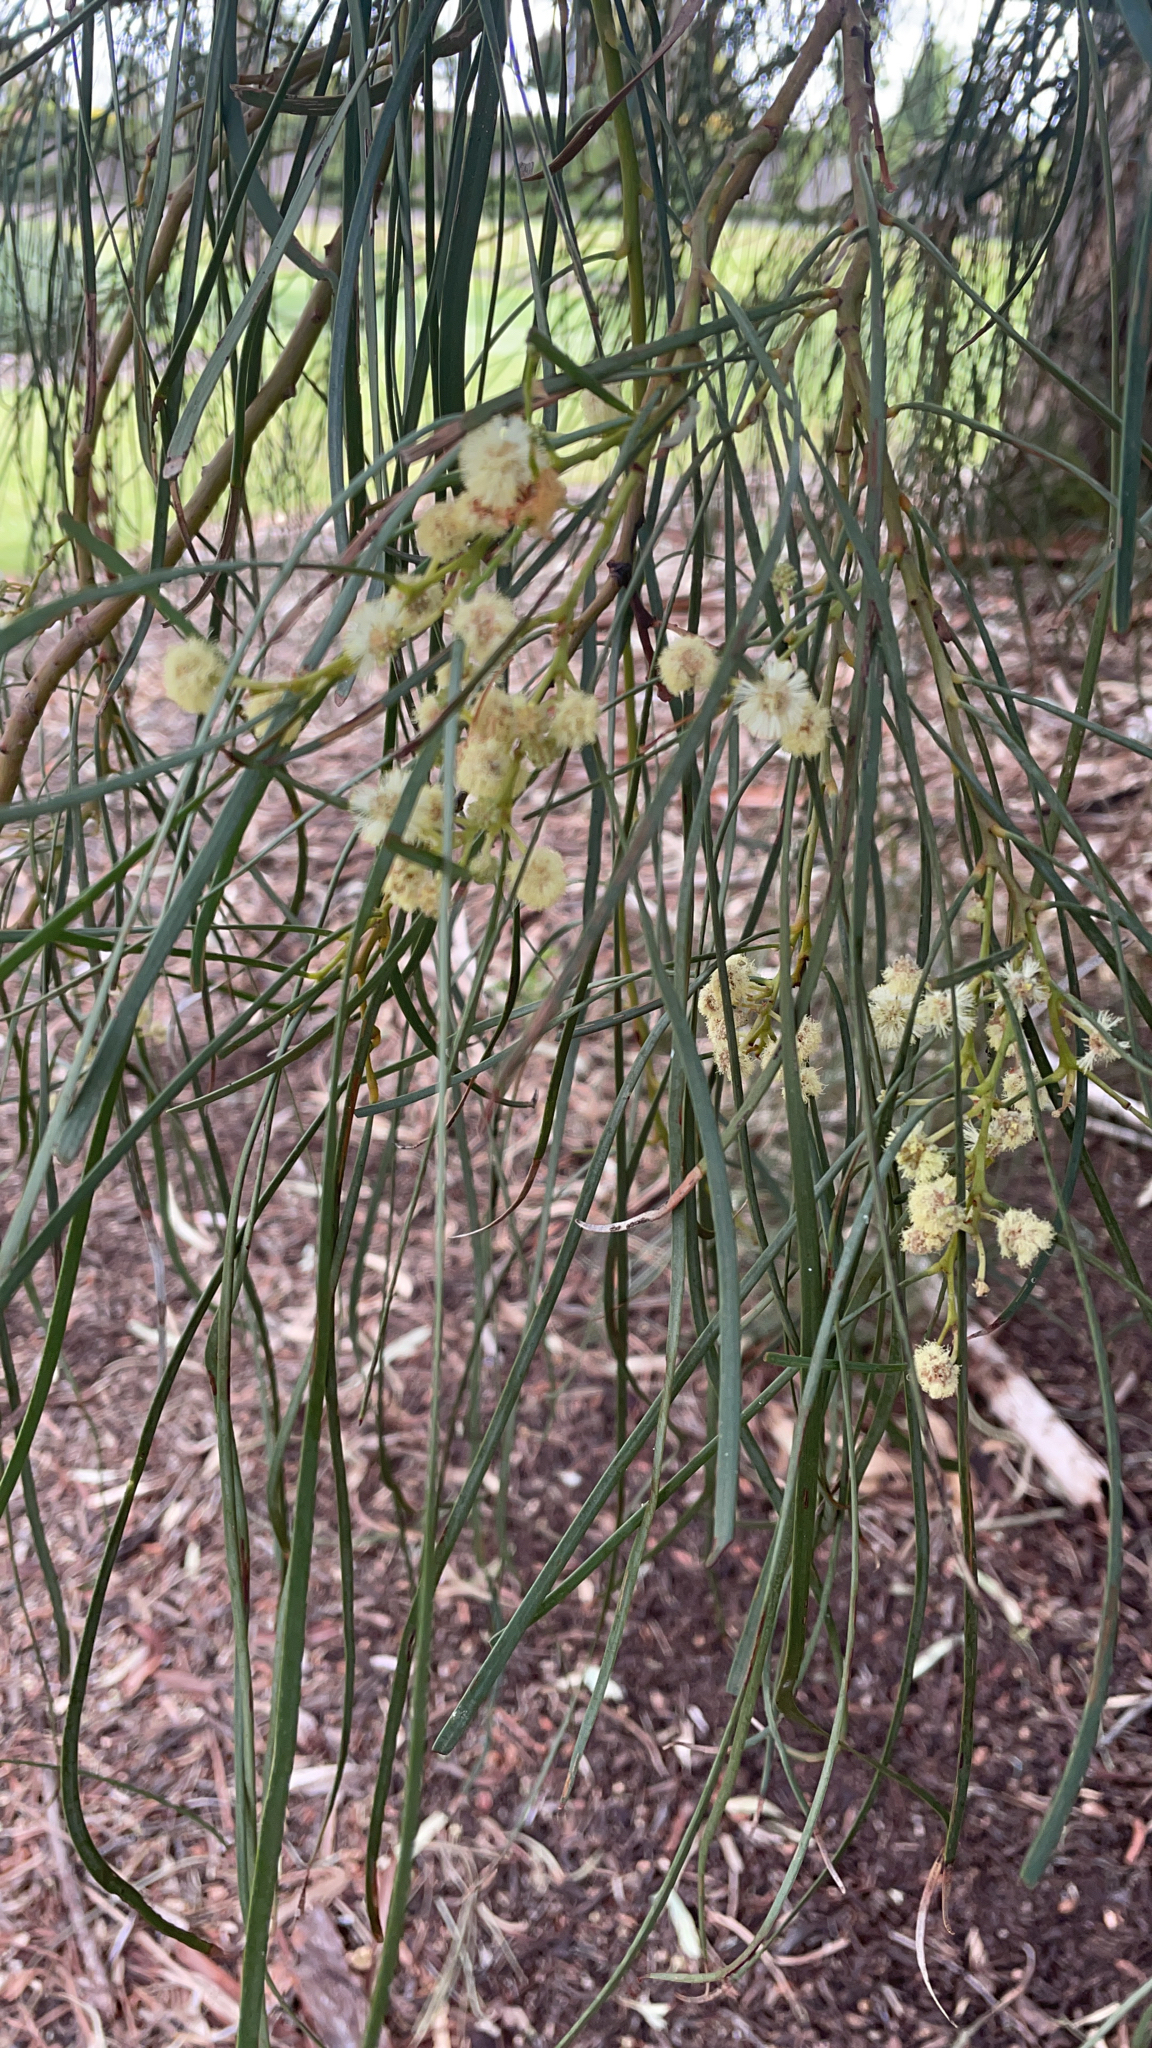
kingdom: Plantae
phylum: Tracheophyta
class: Magnoliopsida
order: Fabales
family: Fabaceae
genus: Acacia
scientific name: Acacia stenophylla
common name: River cooba
